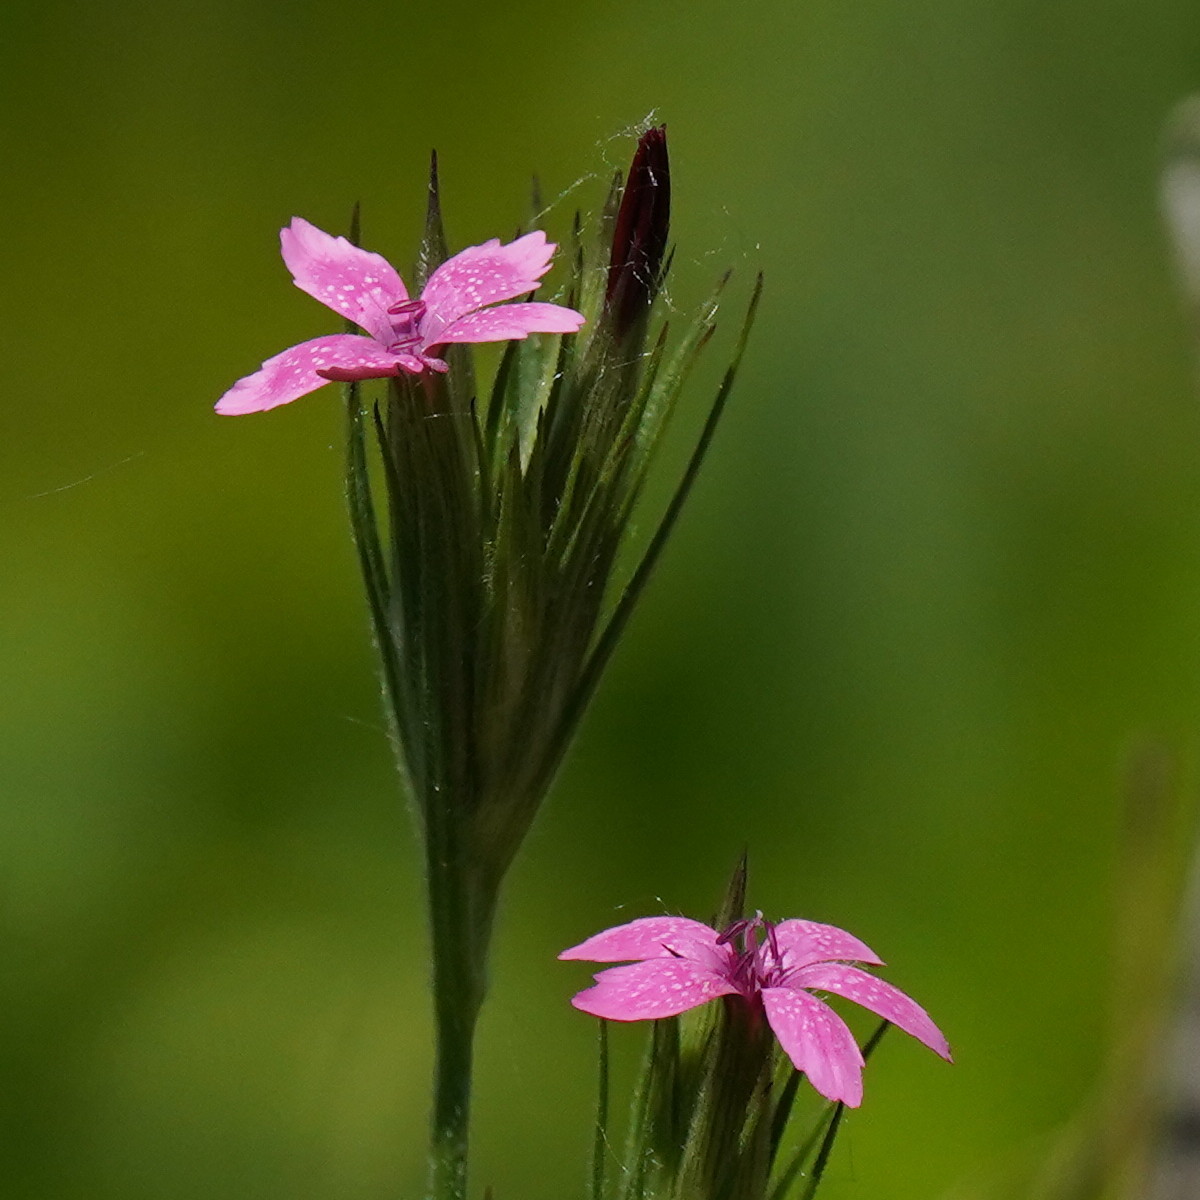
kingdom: Plantae
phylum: Tracheophyta
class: Magnoliopsida
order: Caryophyllales
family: Caryophyllaceae
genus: Dianthus
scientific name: Dianthus armeria
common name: Deptford pink
